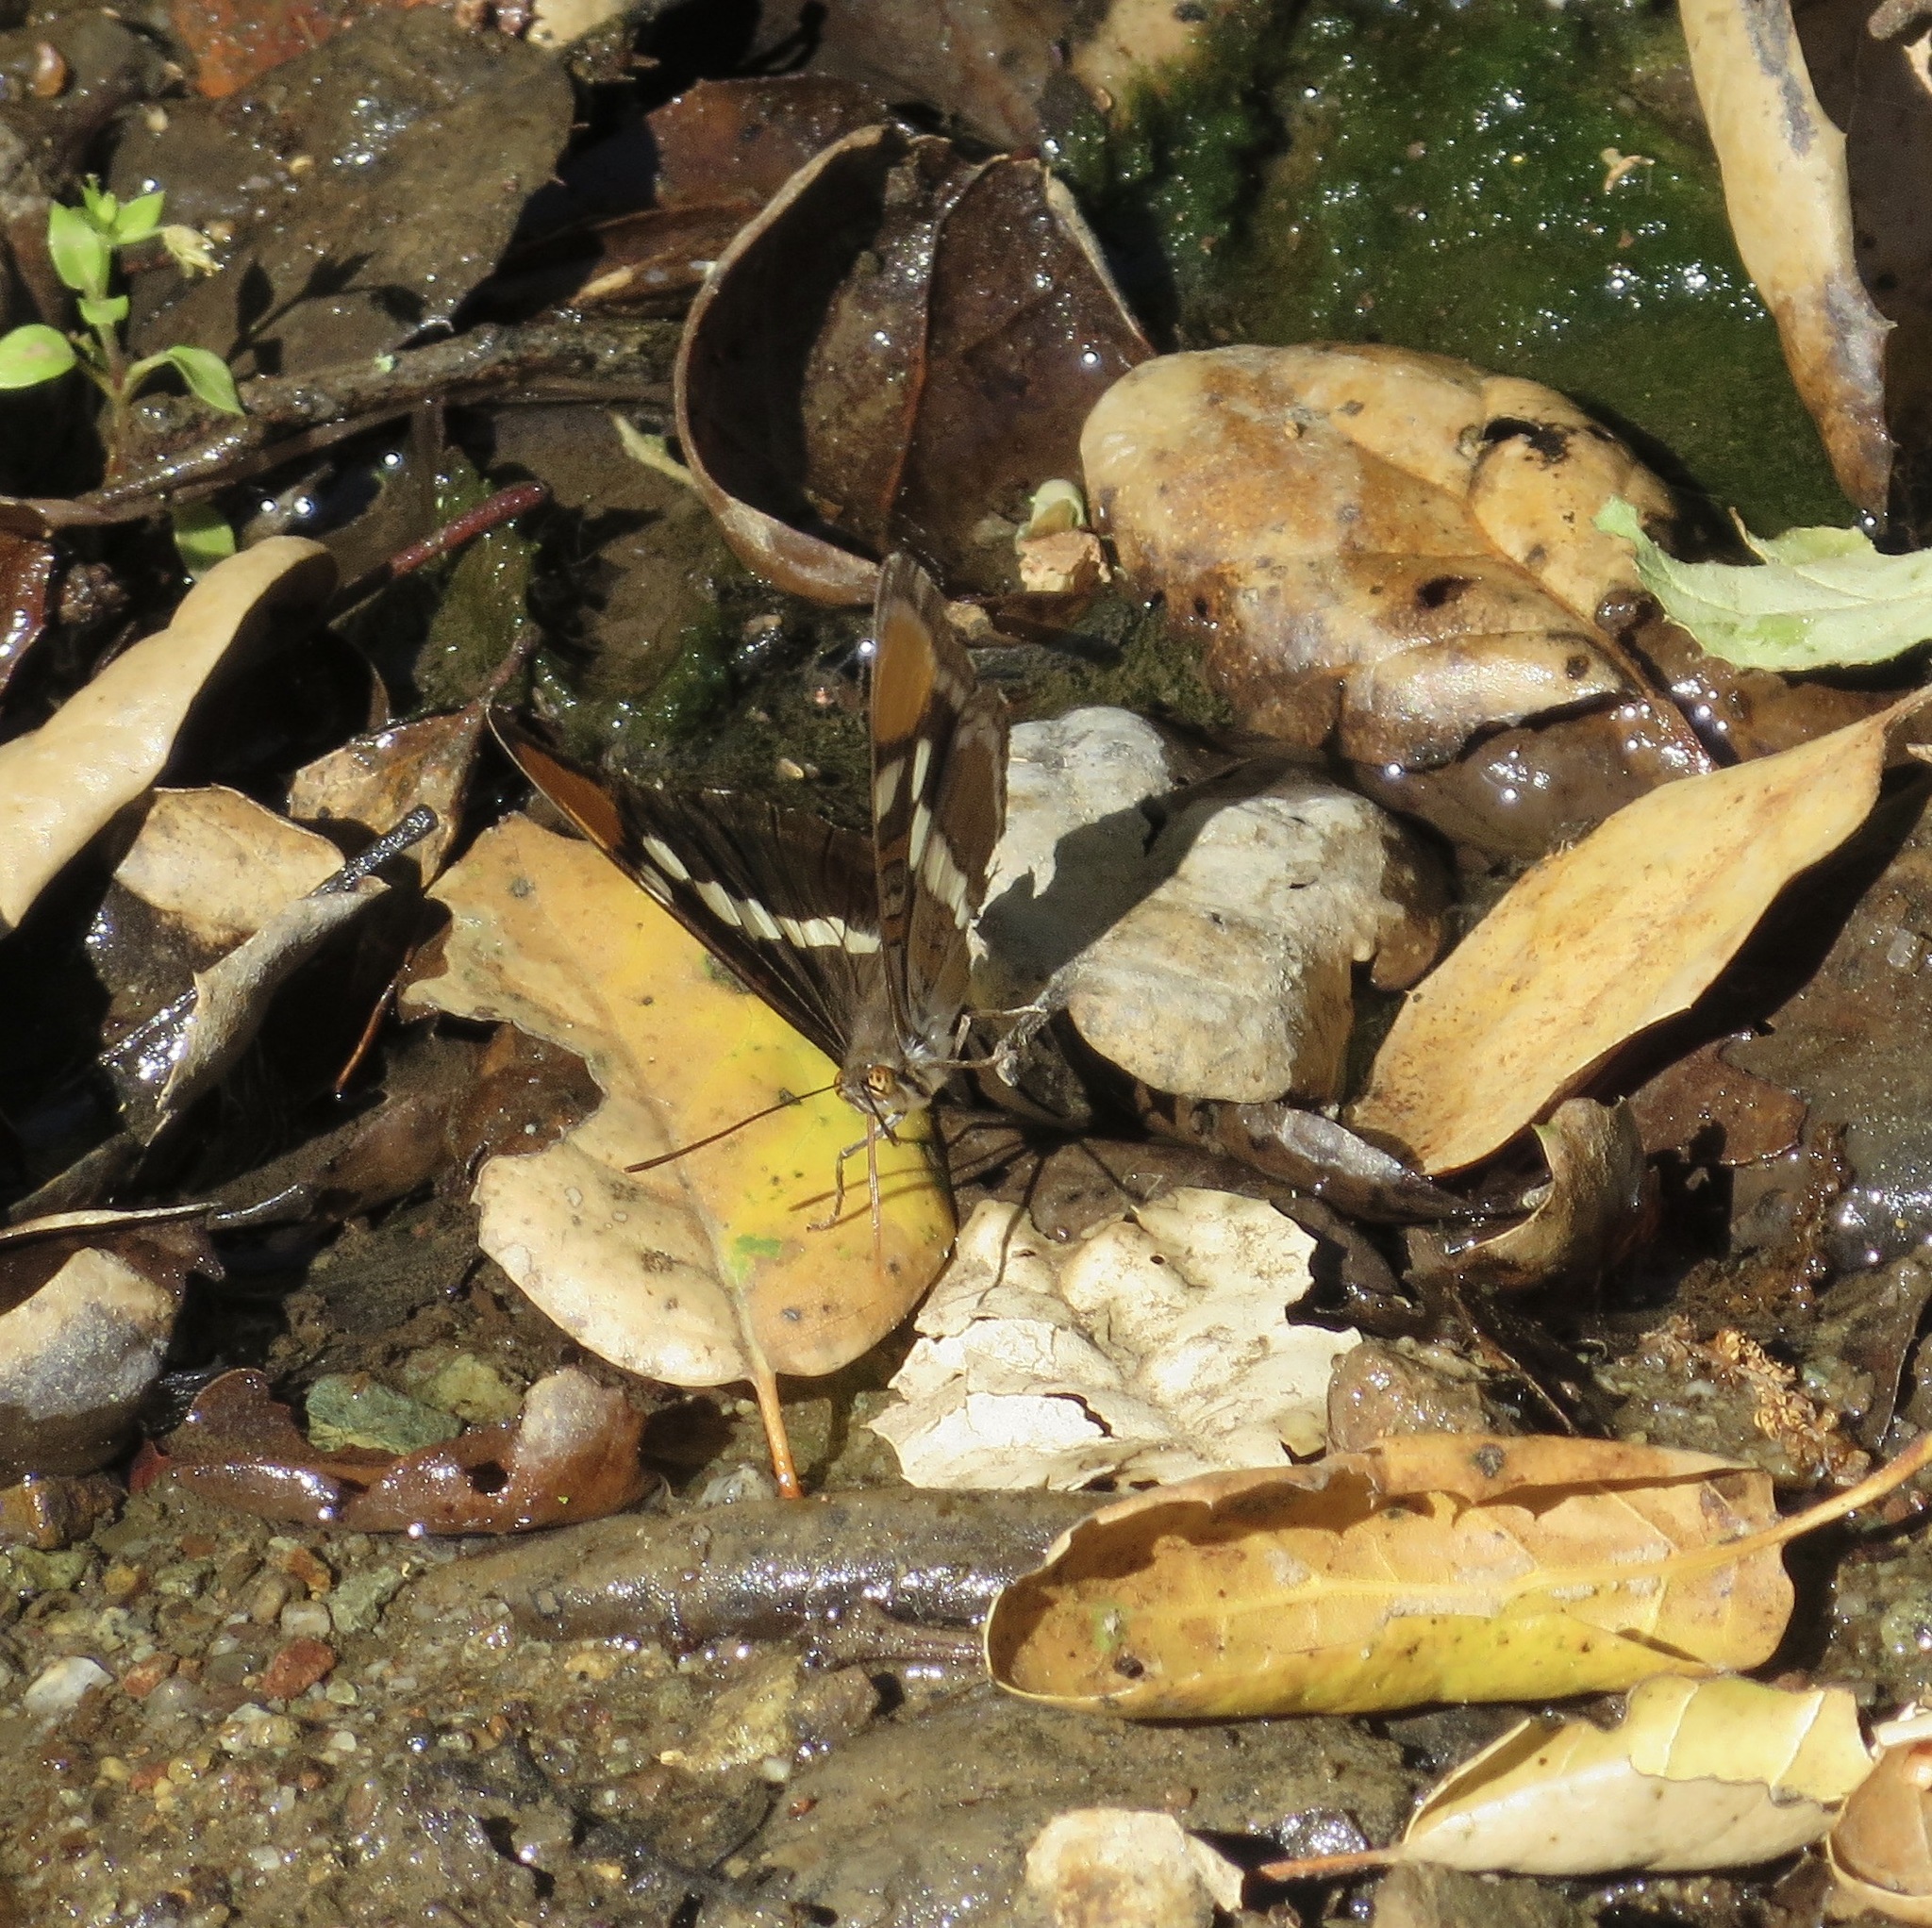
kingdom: Animalia
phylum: Arthropoda
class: Insecta
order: Lepidoptera
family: Nymphalidae
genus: Limenitis
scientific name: Limenitis bredowii
